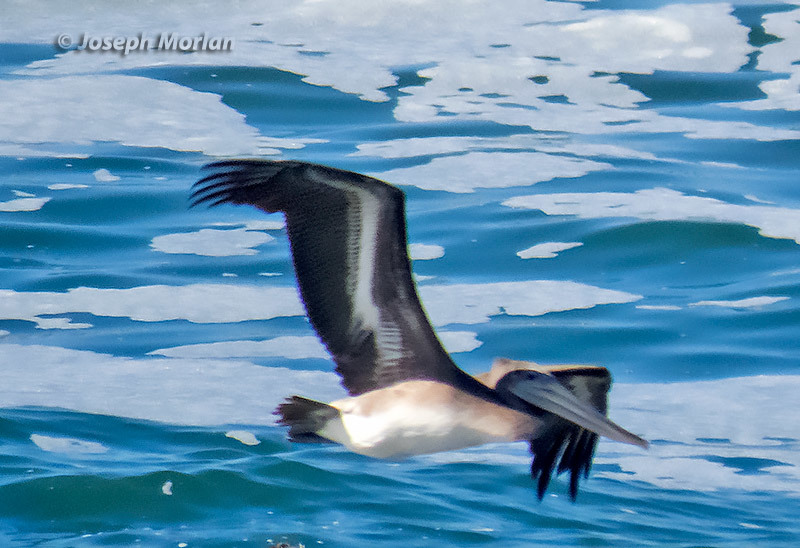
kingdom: Animalia
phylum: Chordata
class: Aves
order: Pelecaniformes
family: Pelecanidae
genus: Pelecanus
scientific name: Pelecanus occidentalis
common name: Brown pelican
